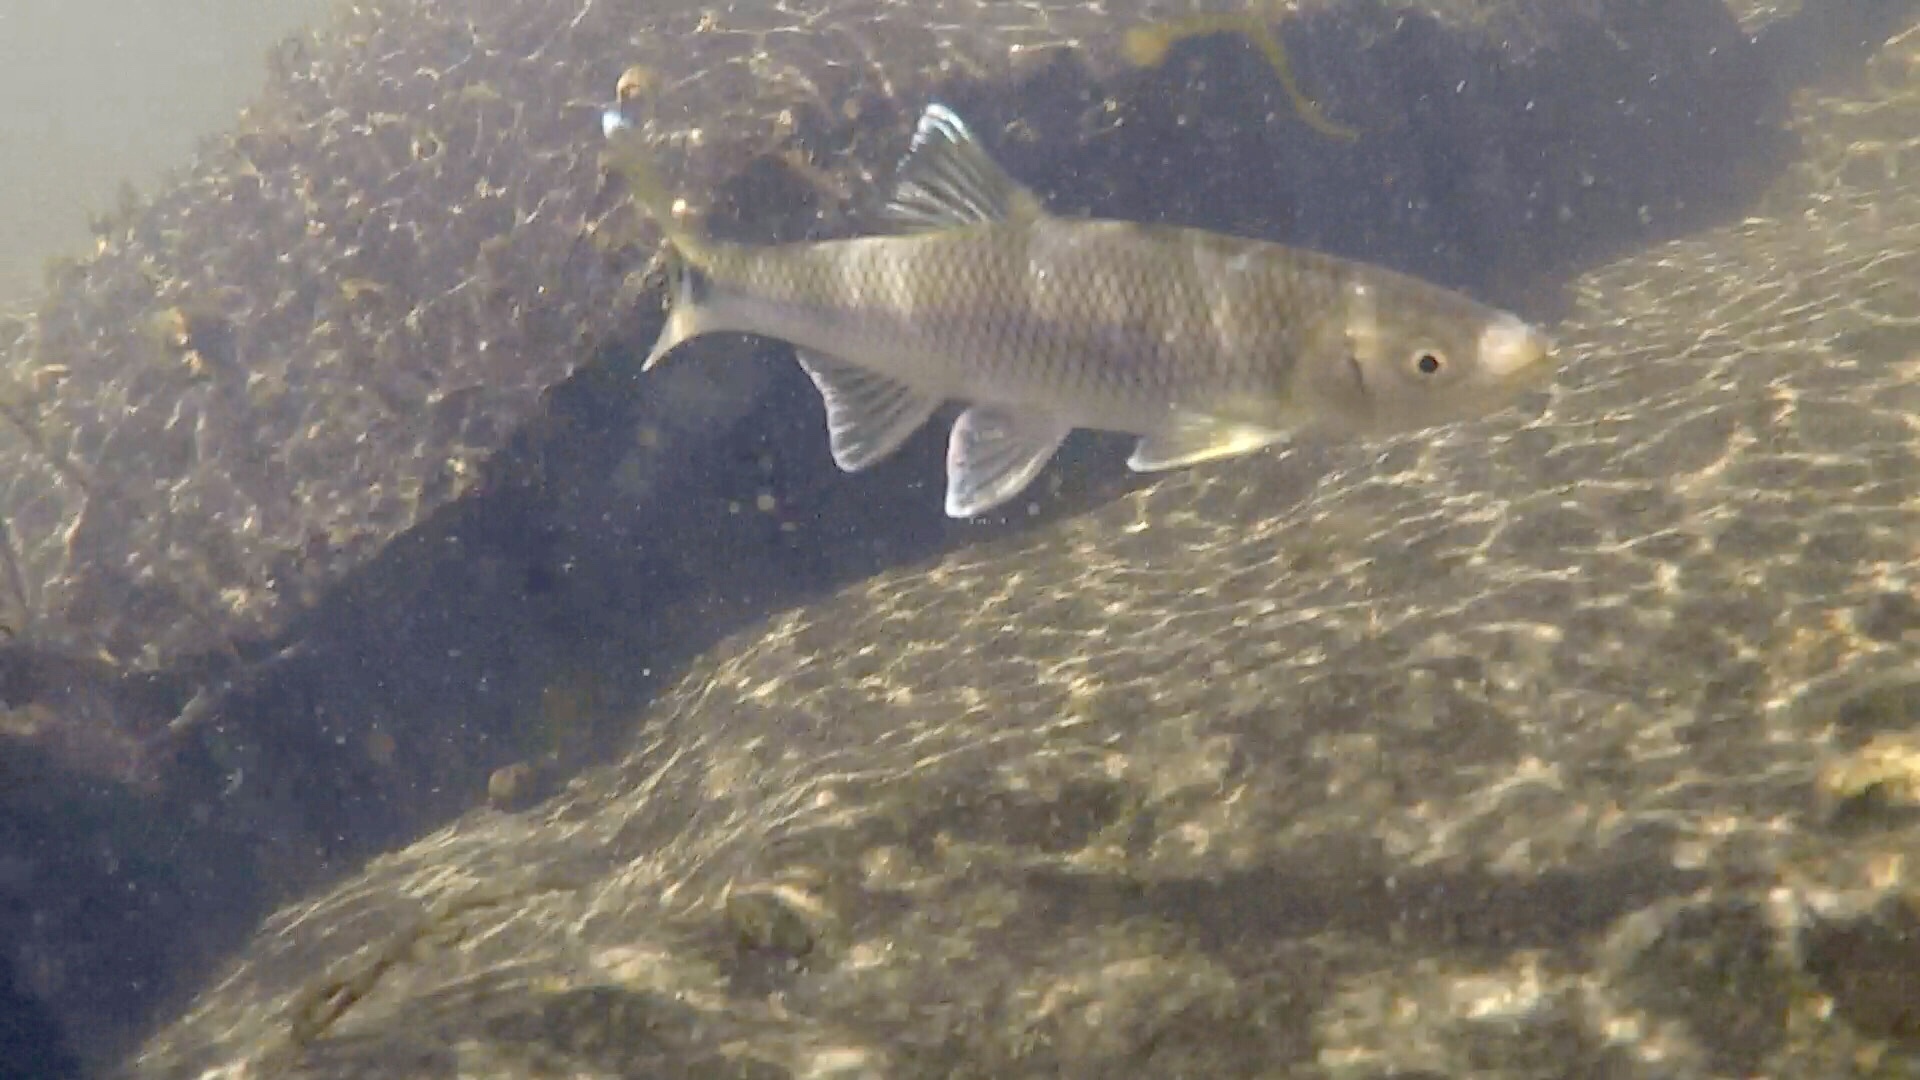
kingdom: Animalia
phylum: Chordata
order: Cypriniformes
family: Cyprinidae
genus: Cyprinella
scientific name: Cyprinella stigmatura
